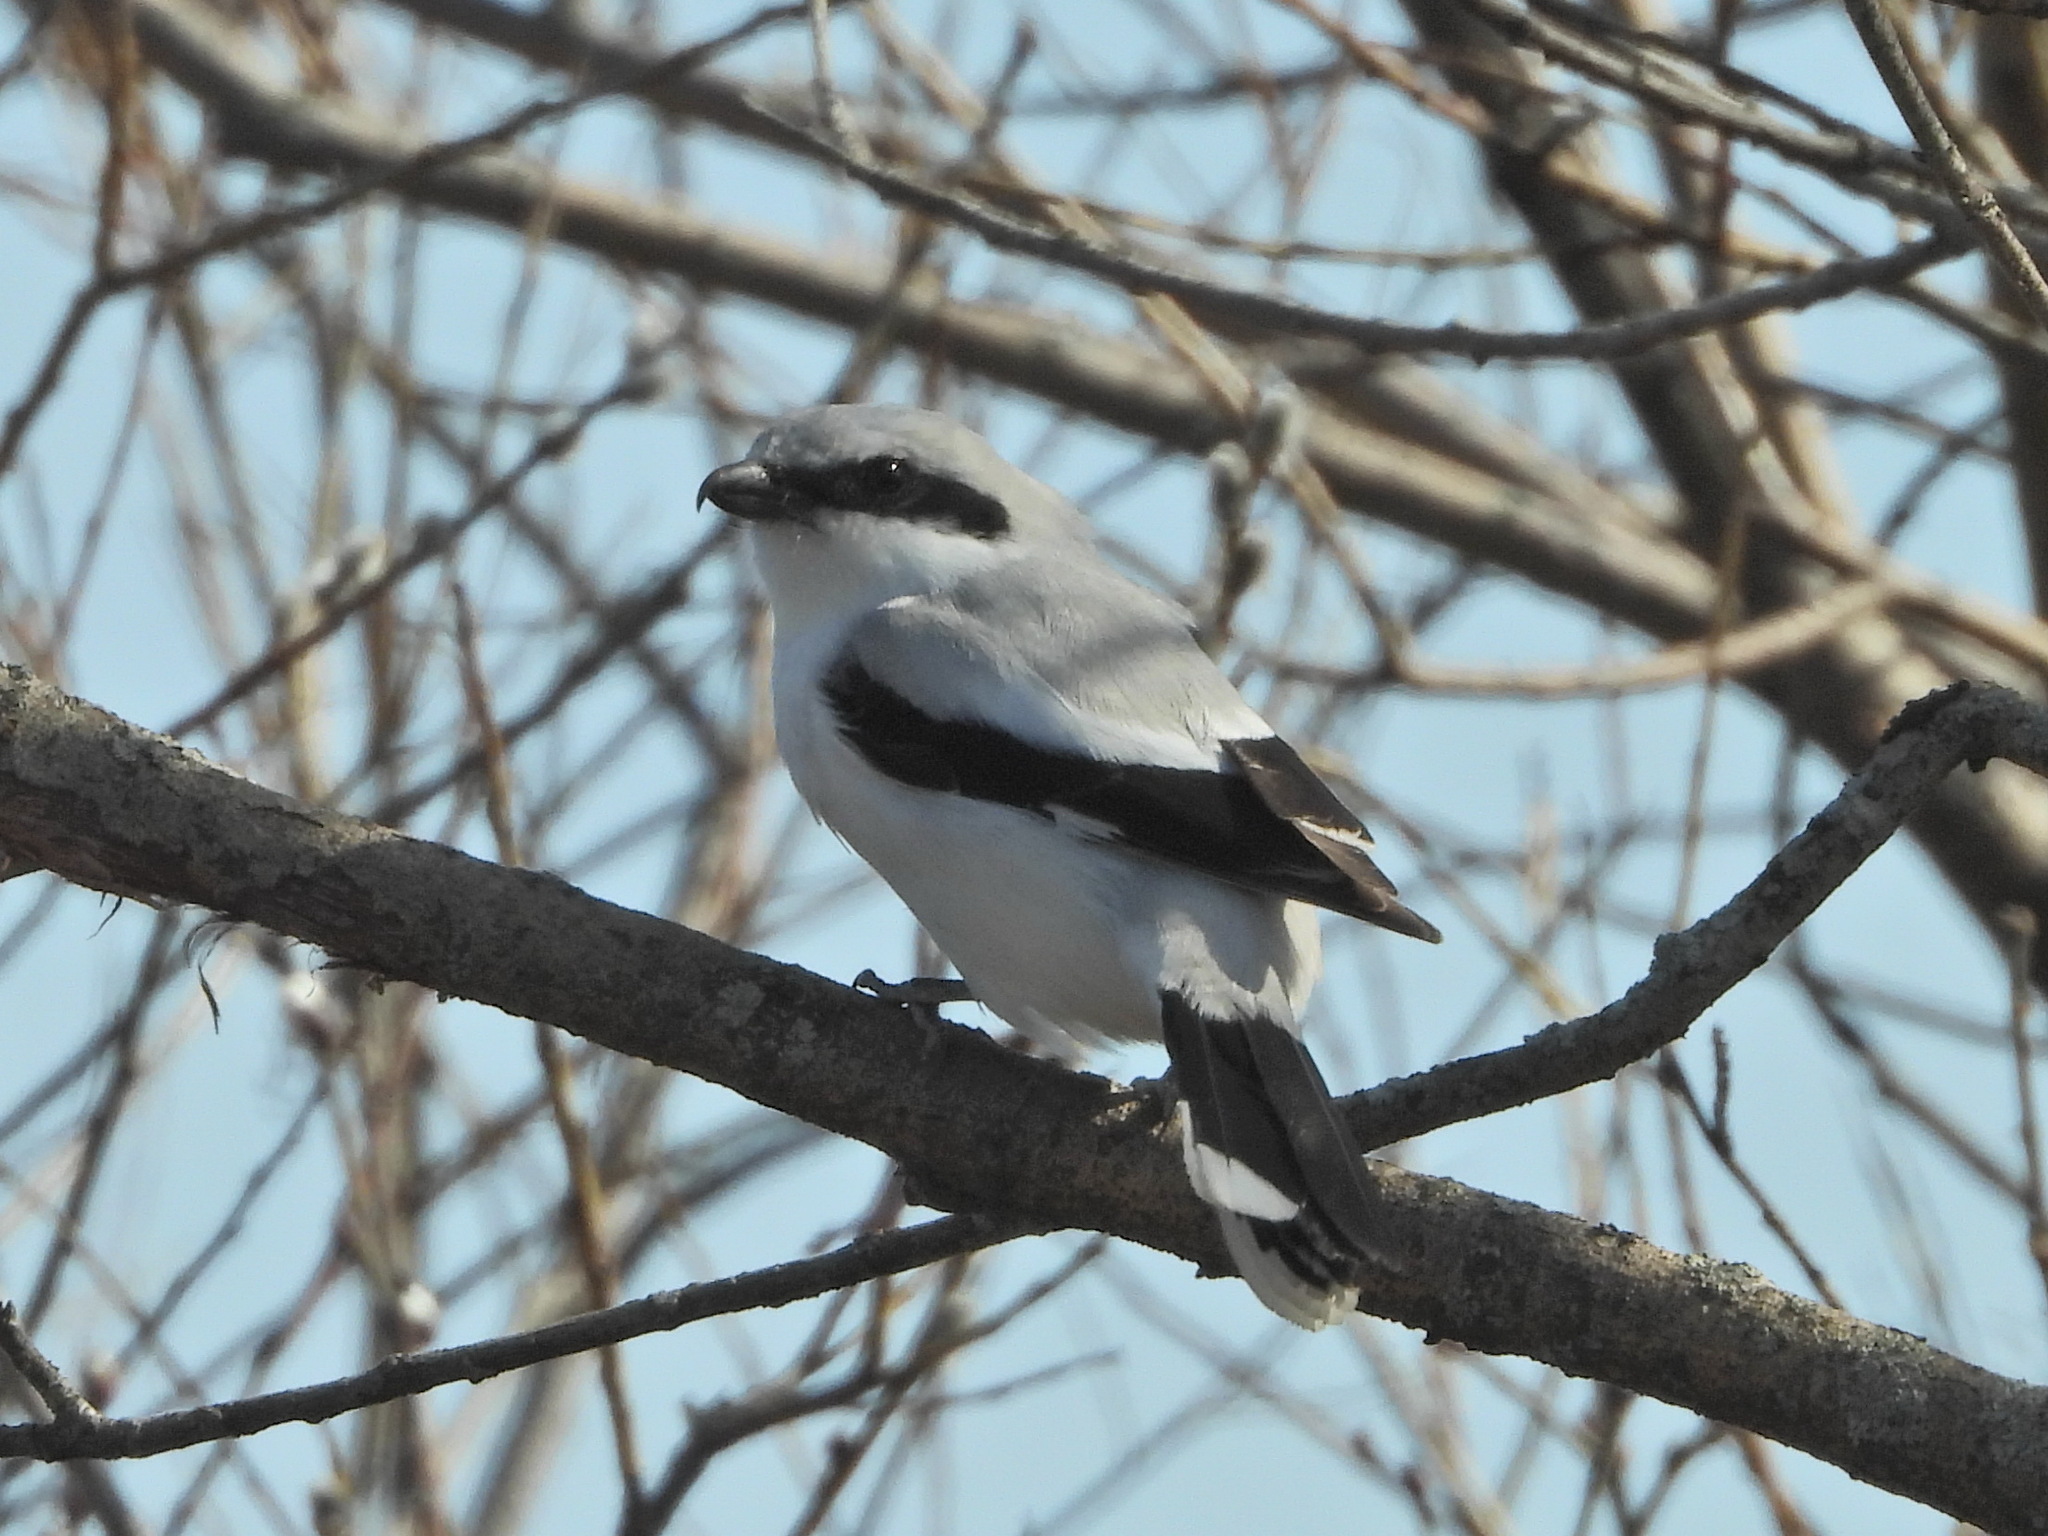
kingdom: Animalia
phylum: Chordata
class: Aves
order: Passeriformes
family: Laniidae
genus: Lanius
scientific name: Lanius excubitor
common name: Great grey shrike
